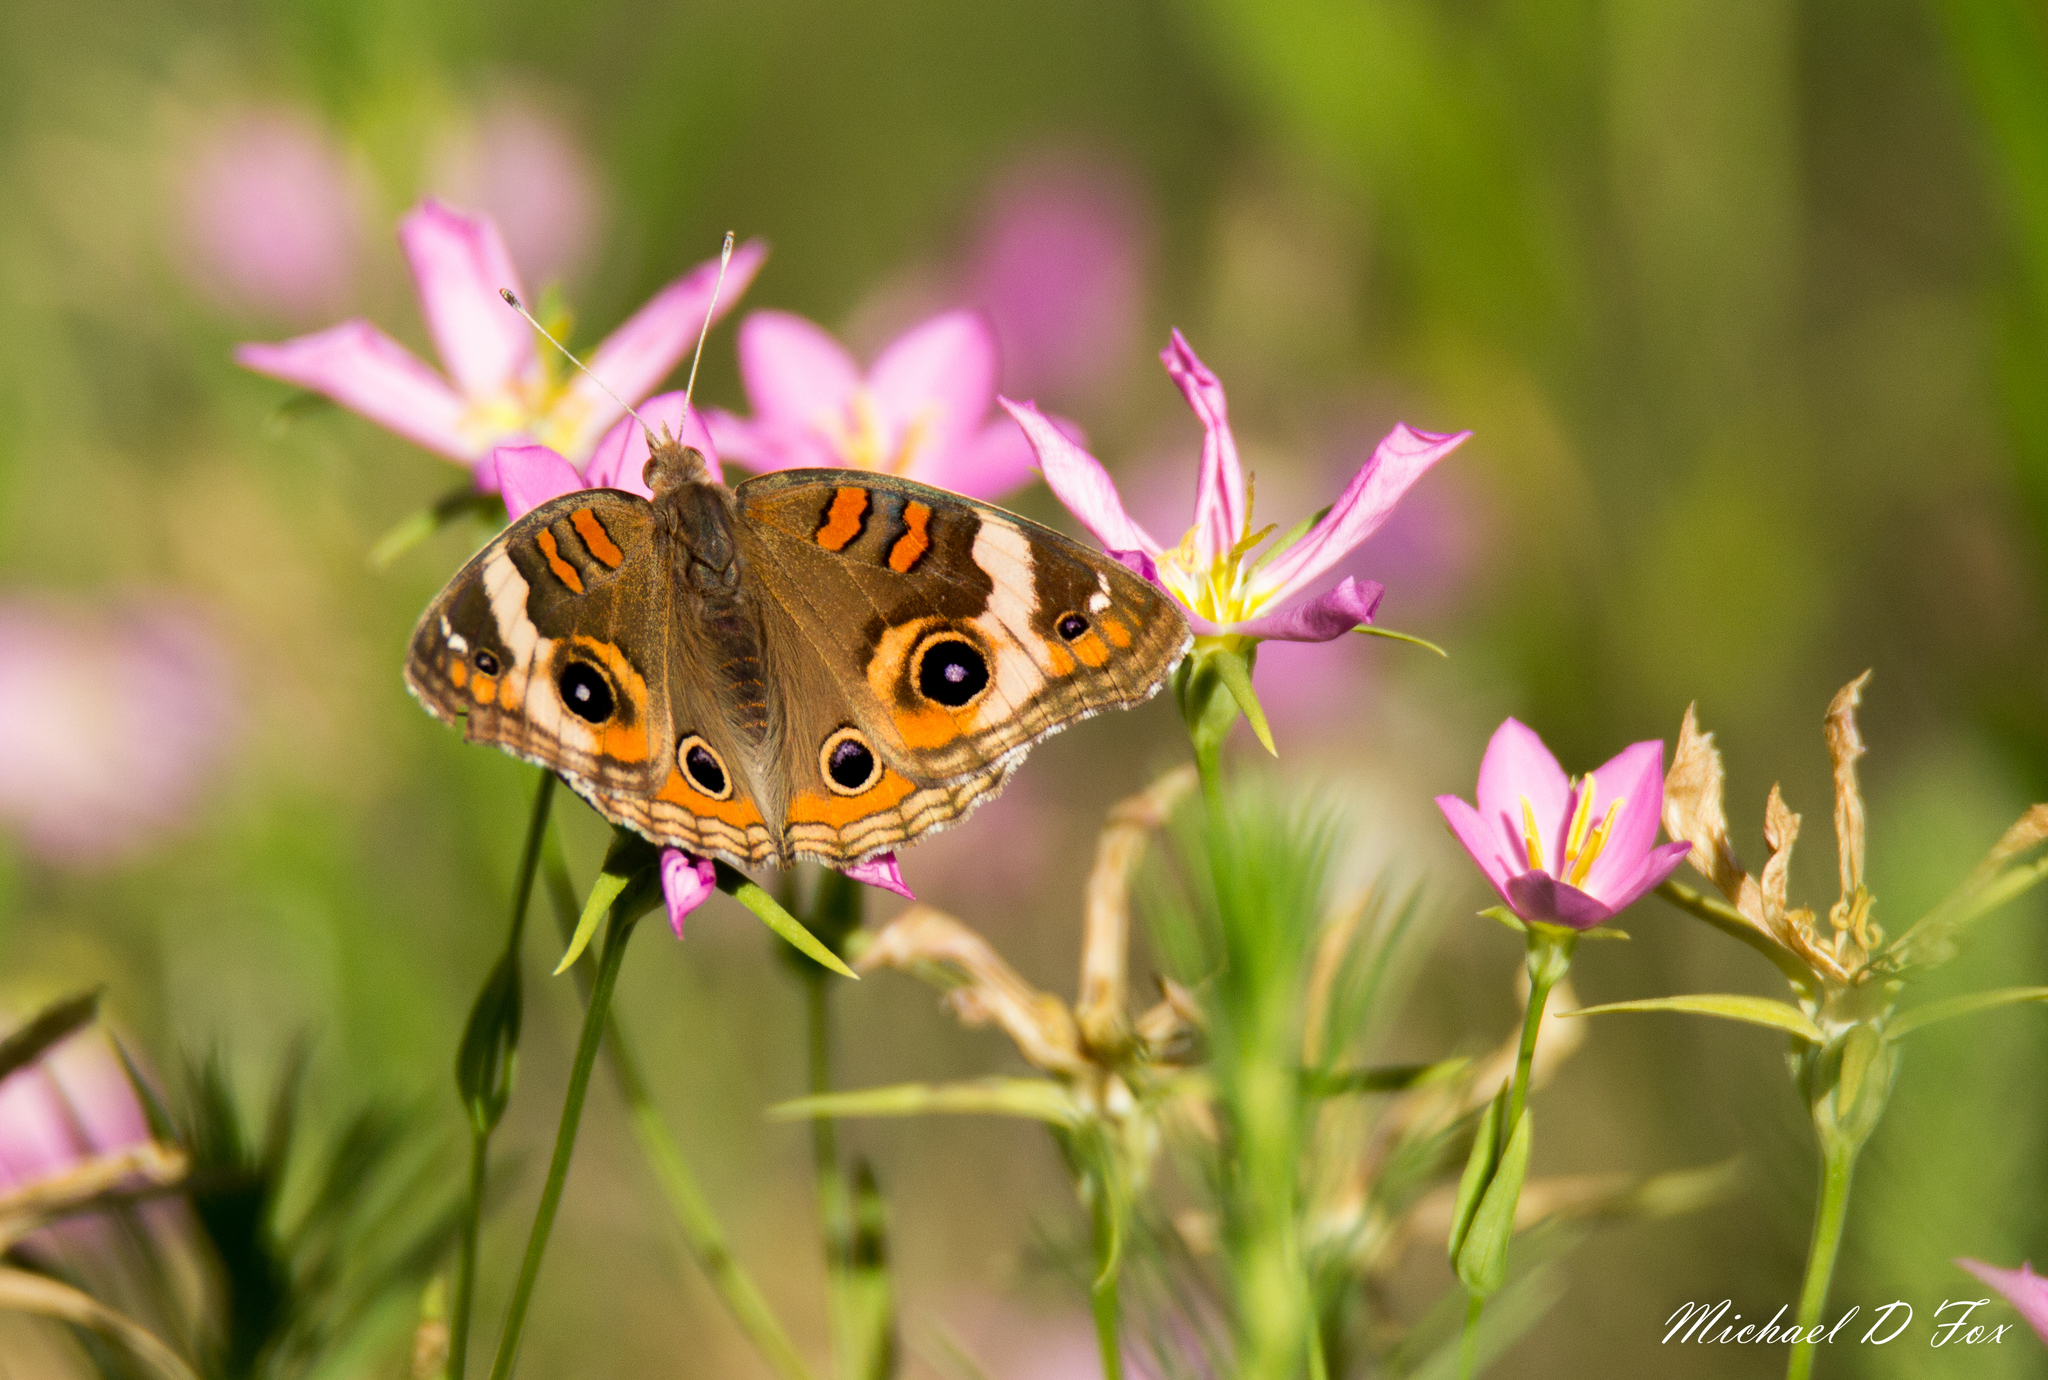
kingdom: Animalia
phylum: Arthropoda
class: Insecta
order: Lepidoptera
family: Nymphalidae
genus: Junonia
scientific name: Junonia coenia
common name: Common buckeye
